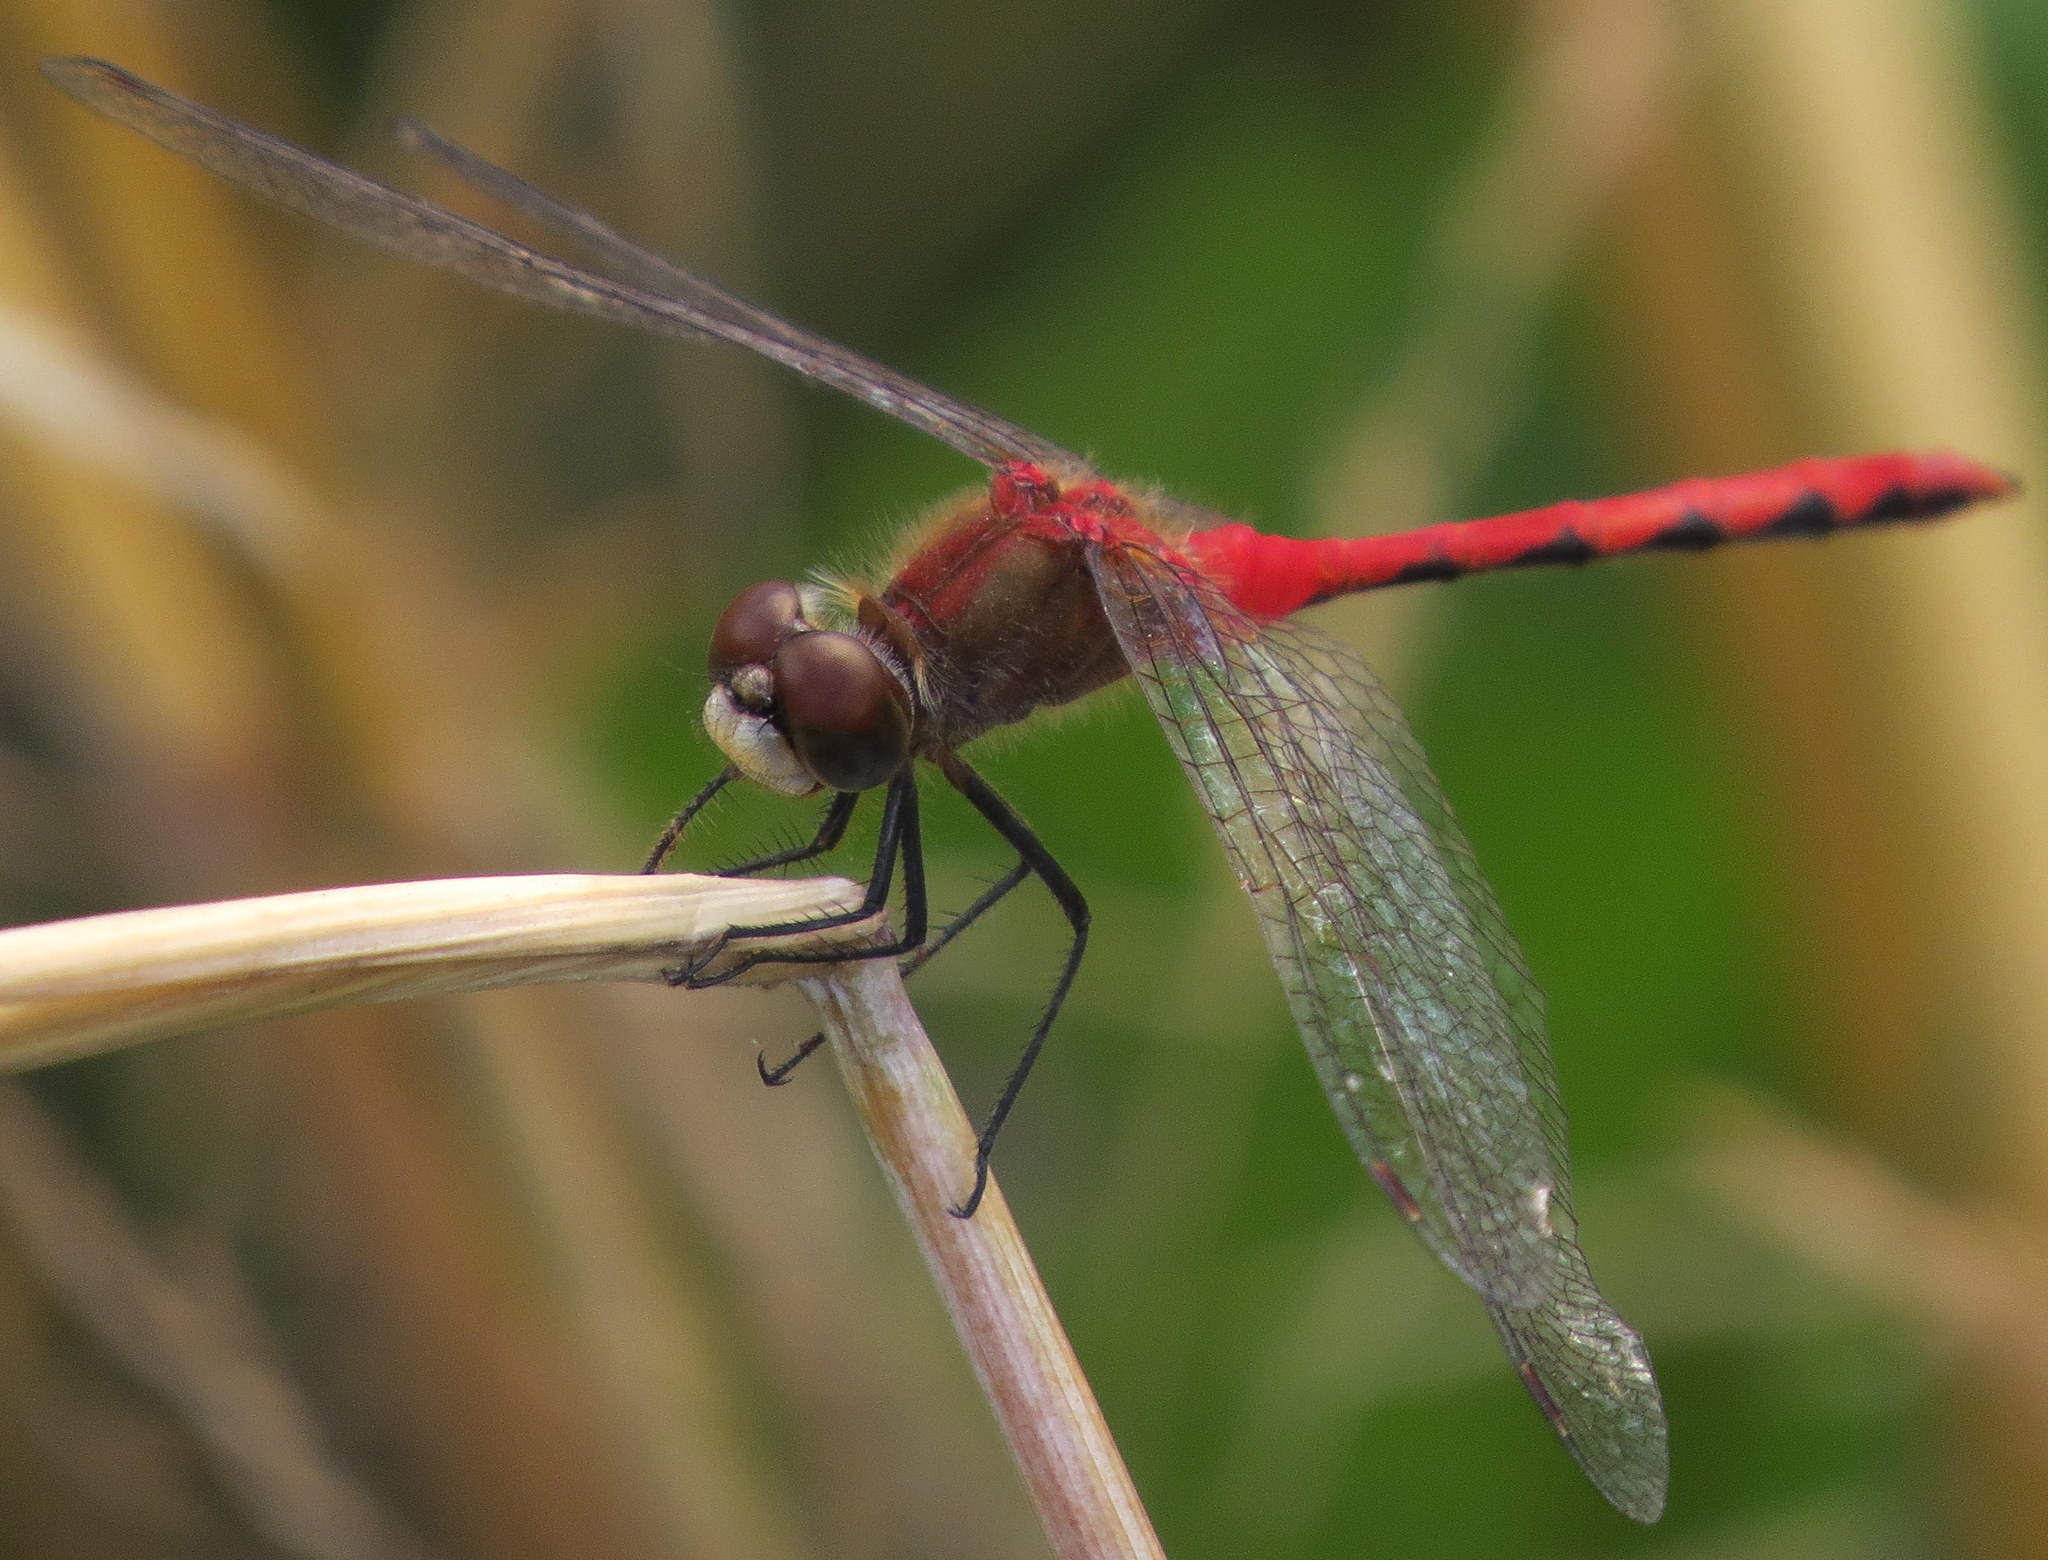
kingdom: Animalia
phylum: Arthropoda
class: Insecta
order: Odonata
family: Libellulidae
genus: Sympetrum
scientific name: Sympetrum obtrusum
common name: White-faced meadowhawk
